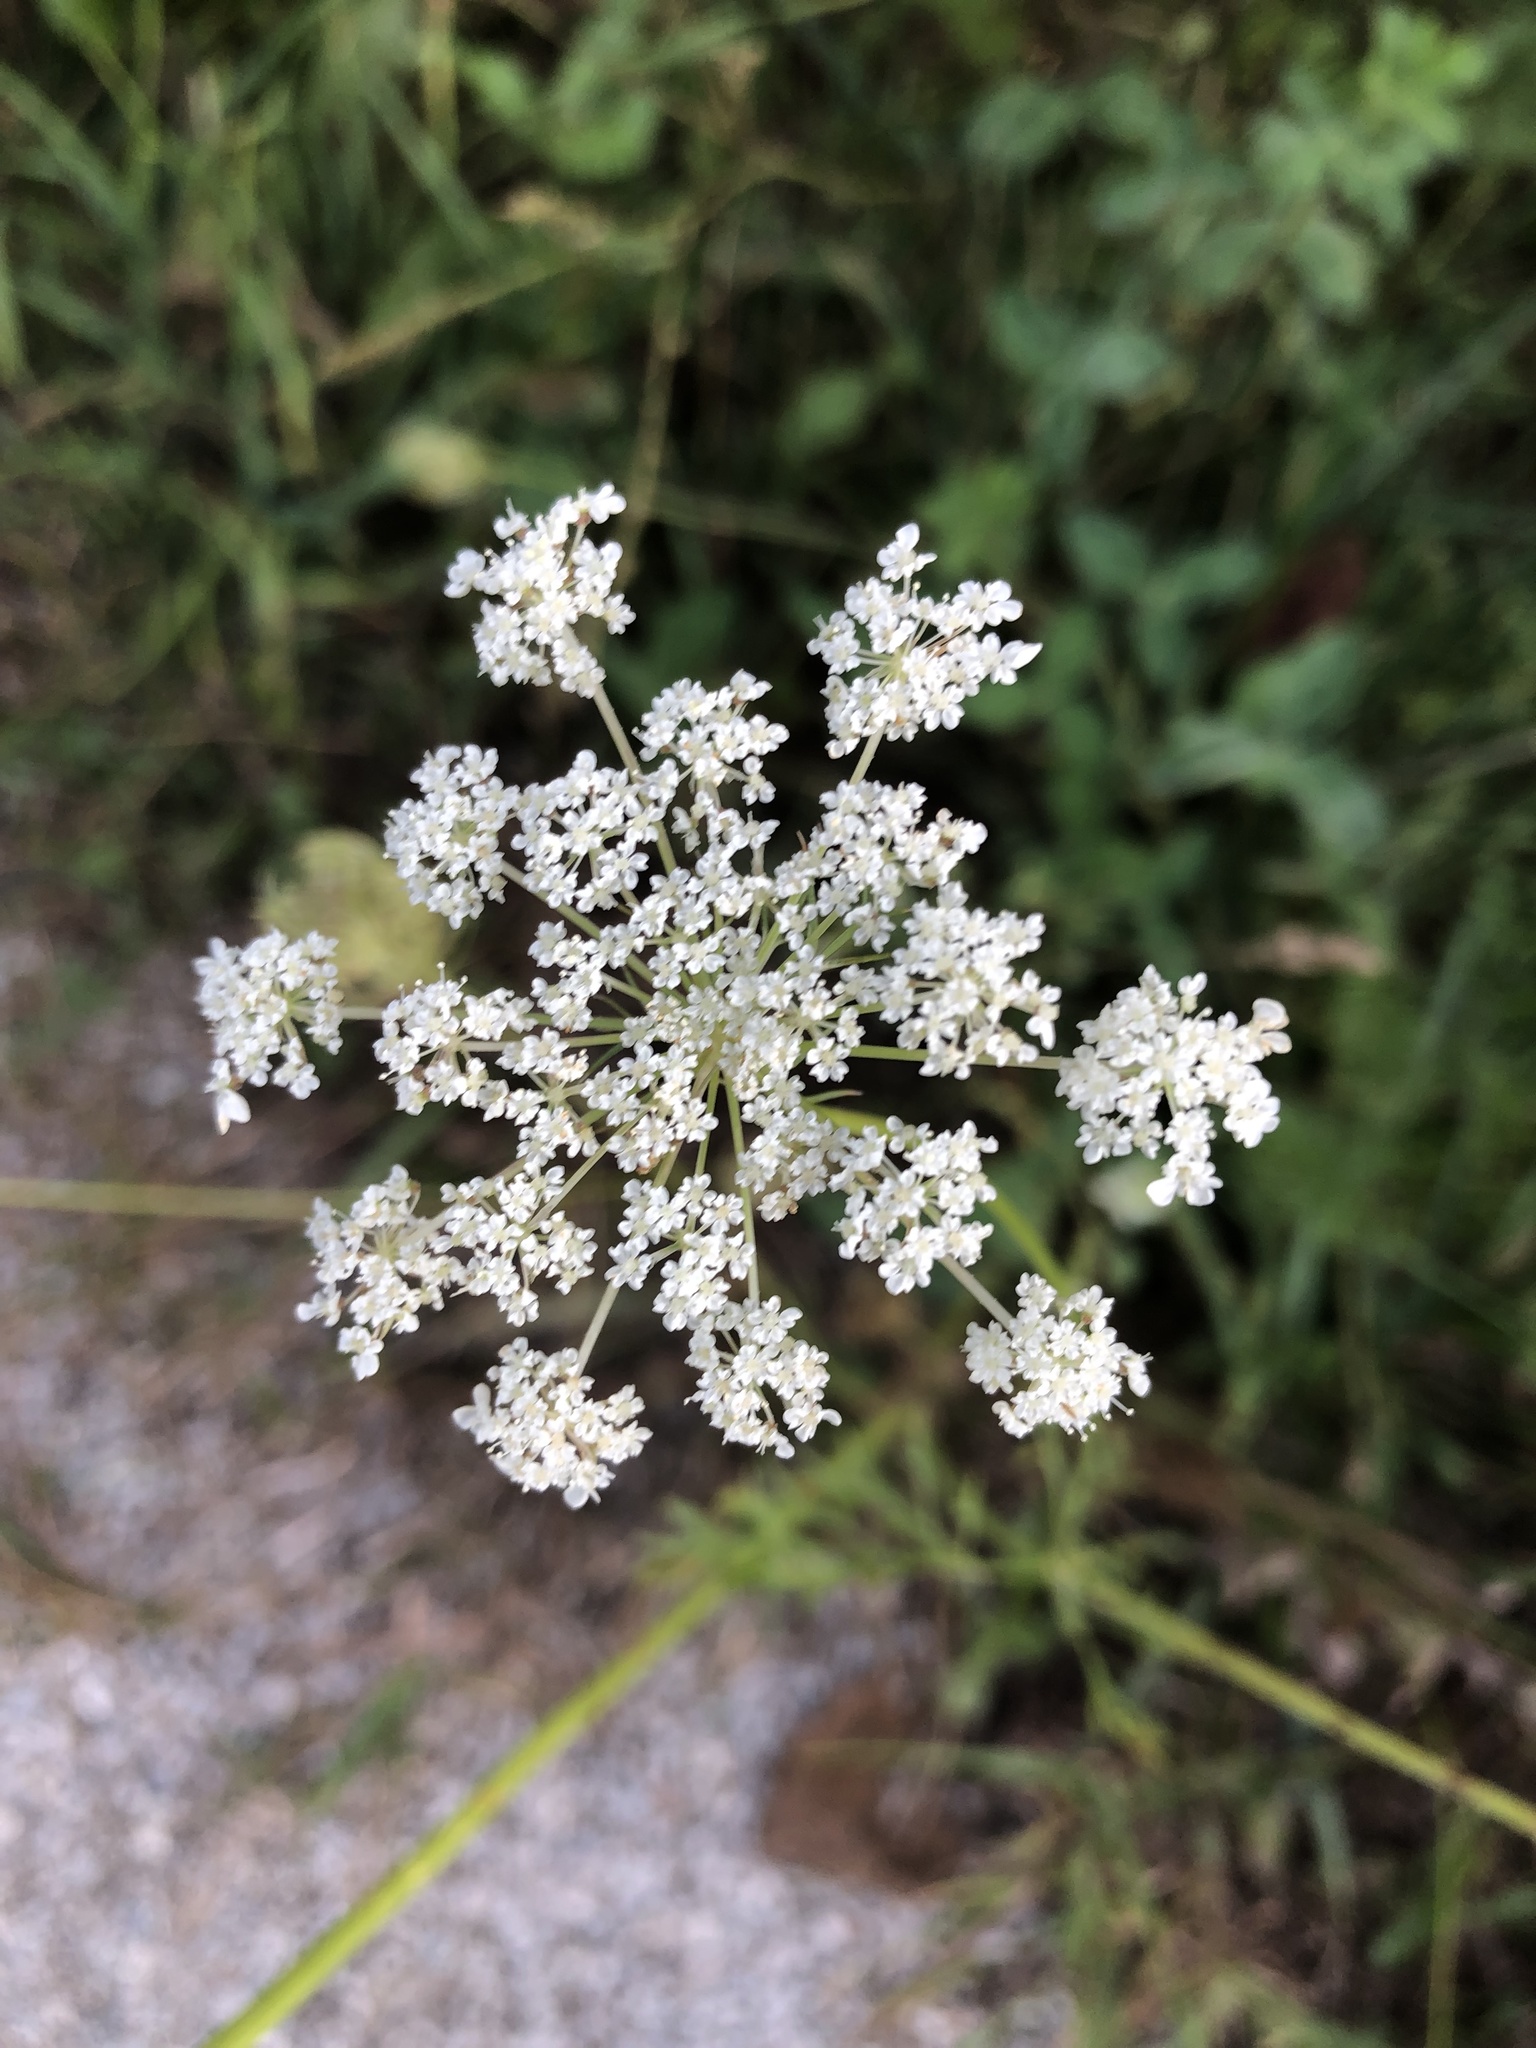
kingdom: Plantae
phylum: Tracheophyta
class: Magnoliopsida
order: Apiales
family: Apiaceae
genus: Daucus
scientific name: Daucus carota
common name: Wild carrot
